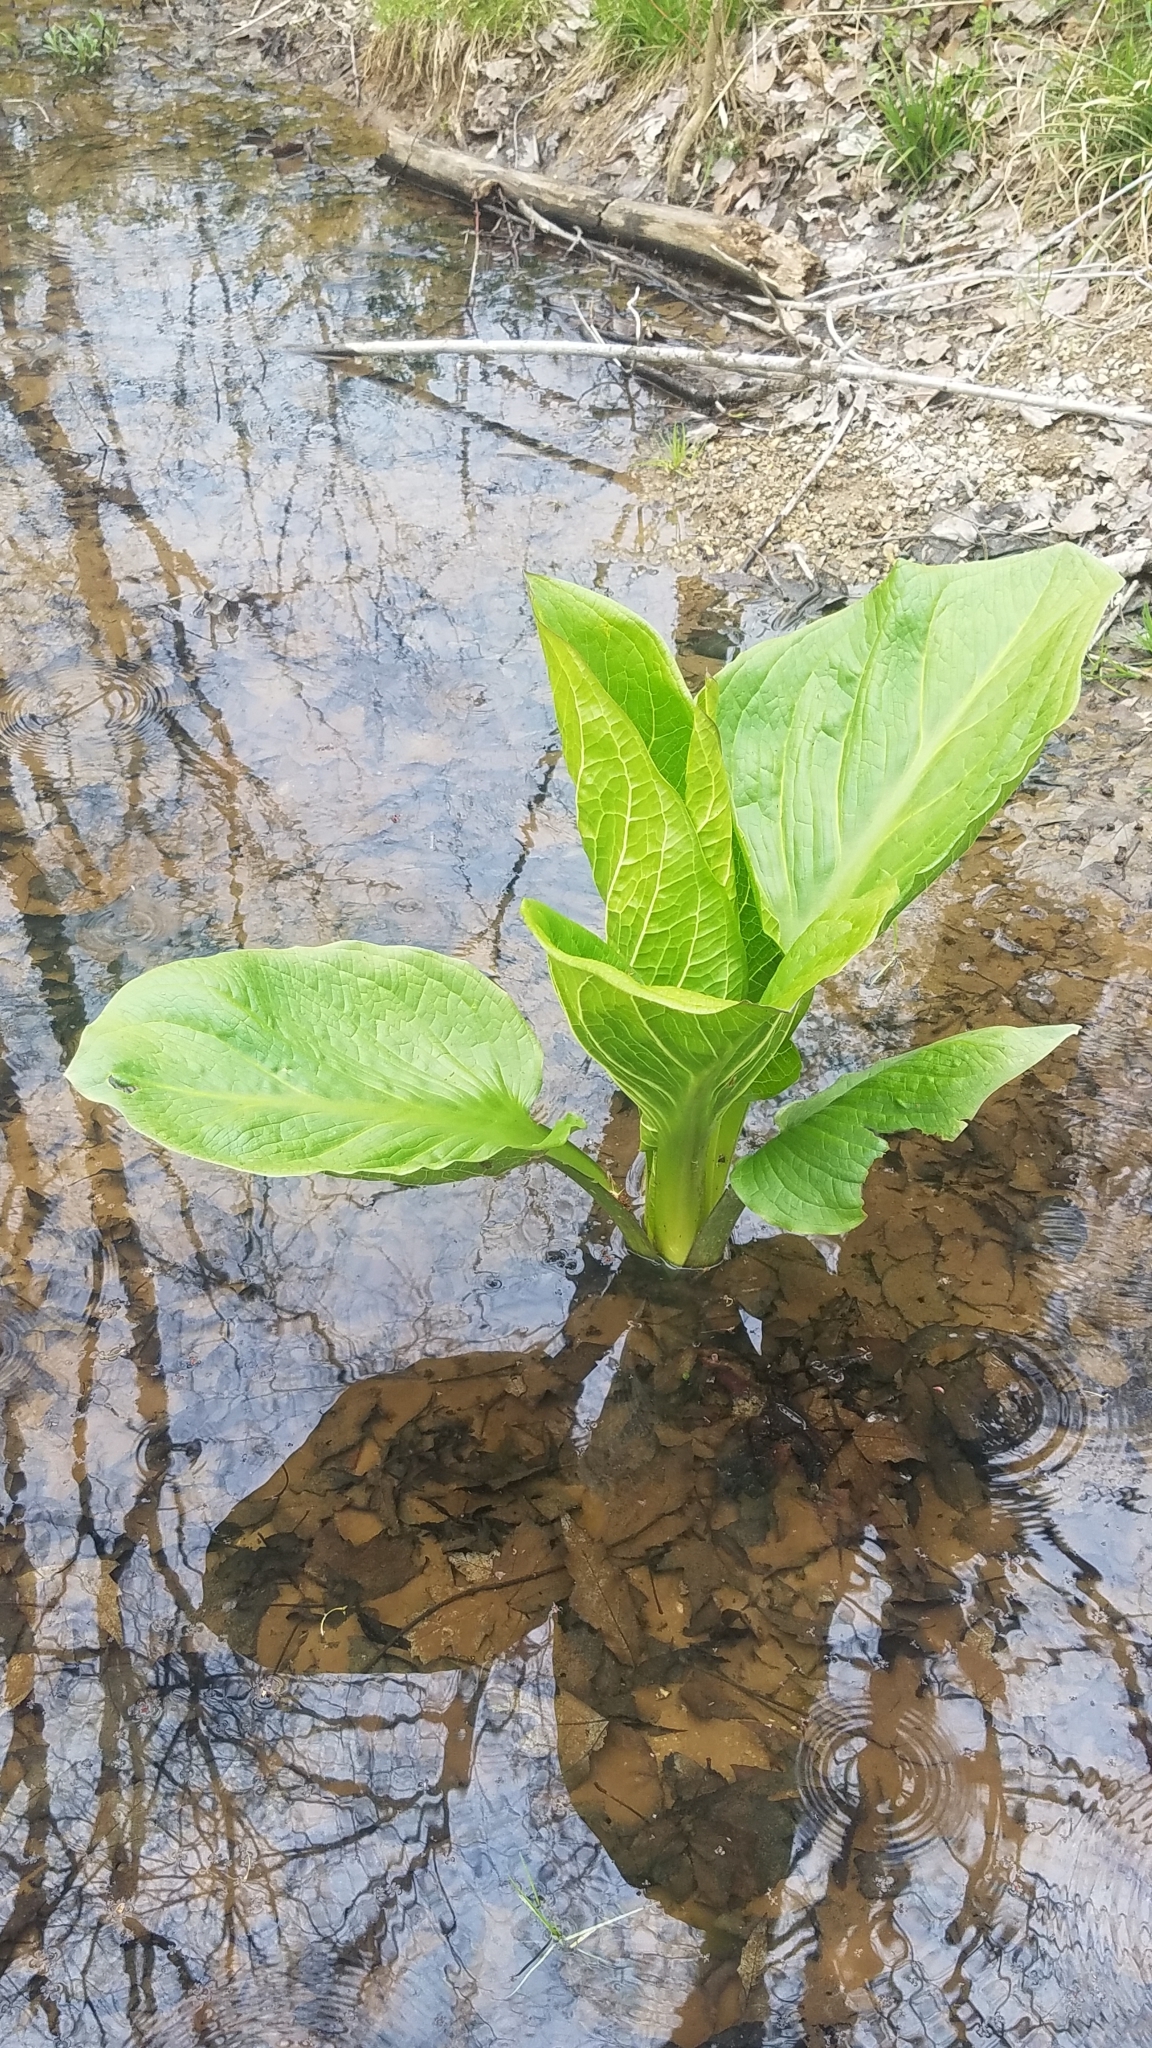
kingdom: Plantae
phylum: Tracheophyta
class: Liliopsida
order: Alismatales
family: Araceae
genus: Symplocarpus
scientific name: Symplocarpus foetidus
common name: Eastern skunk cabbage
